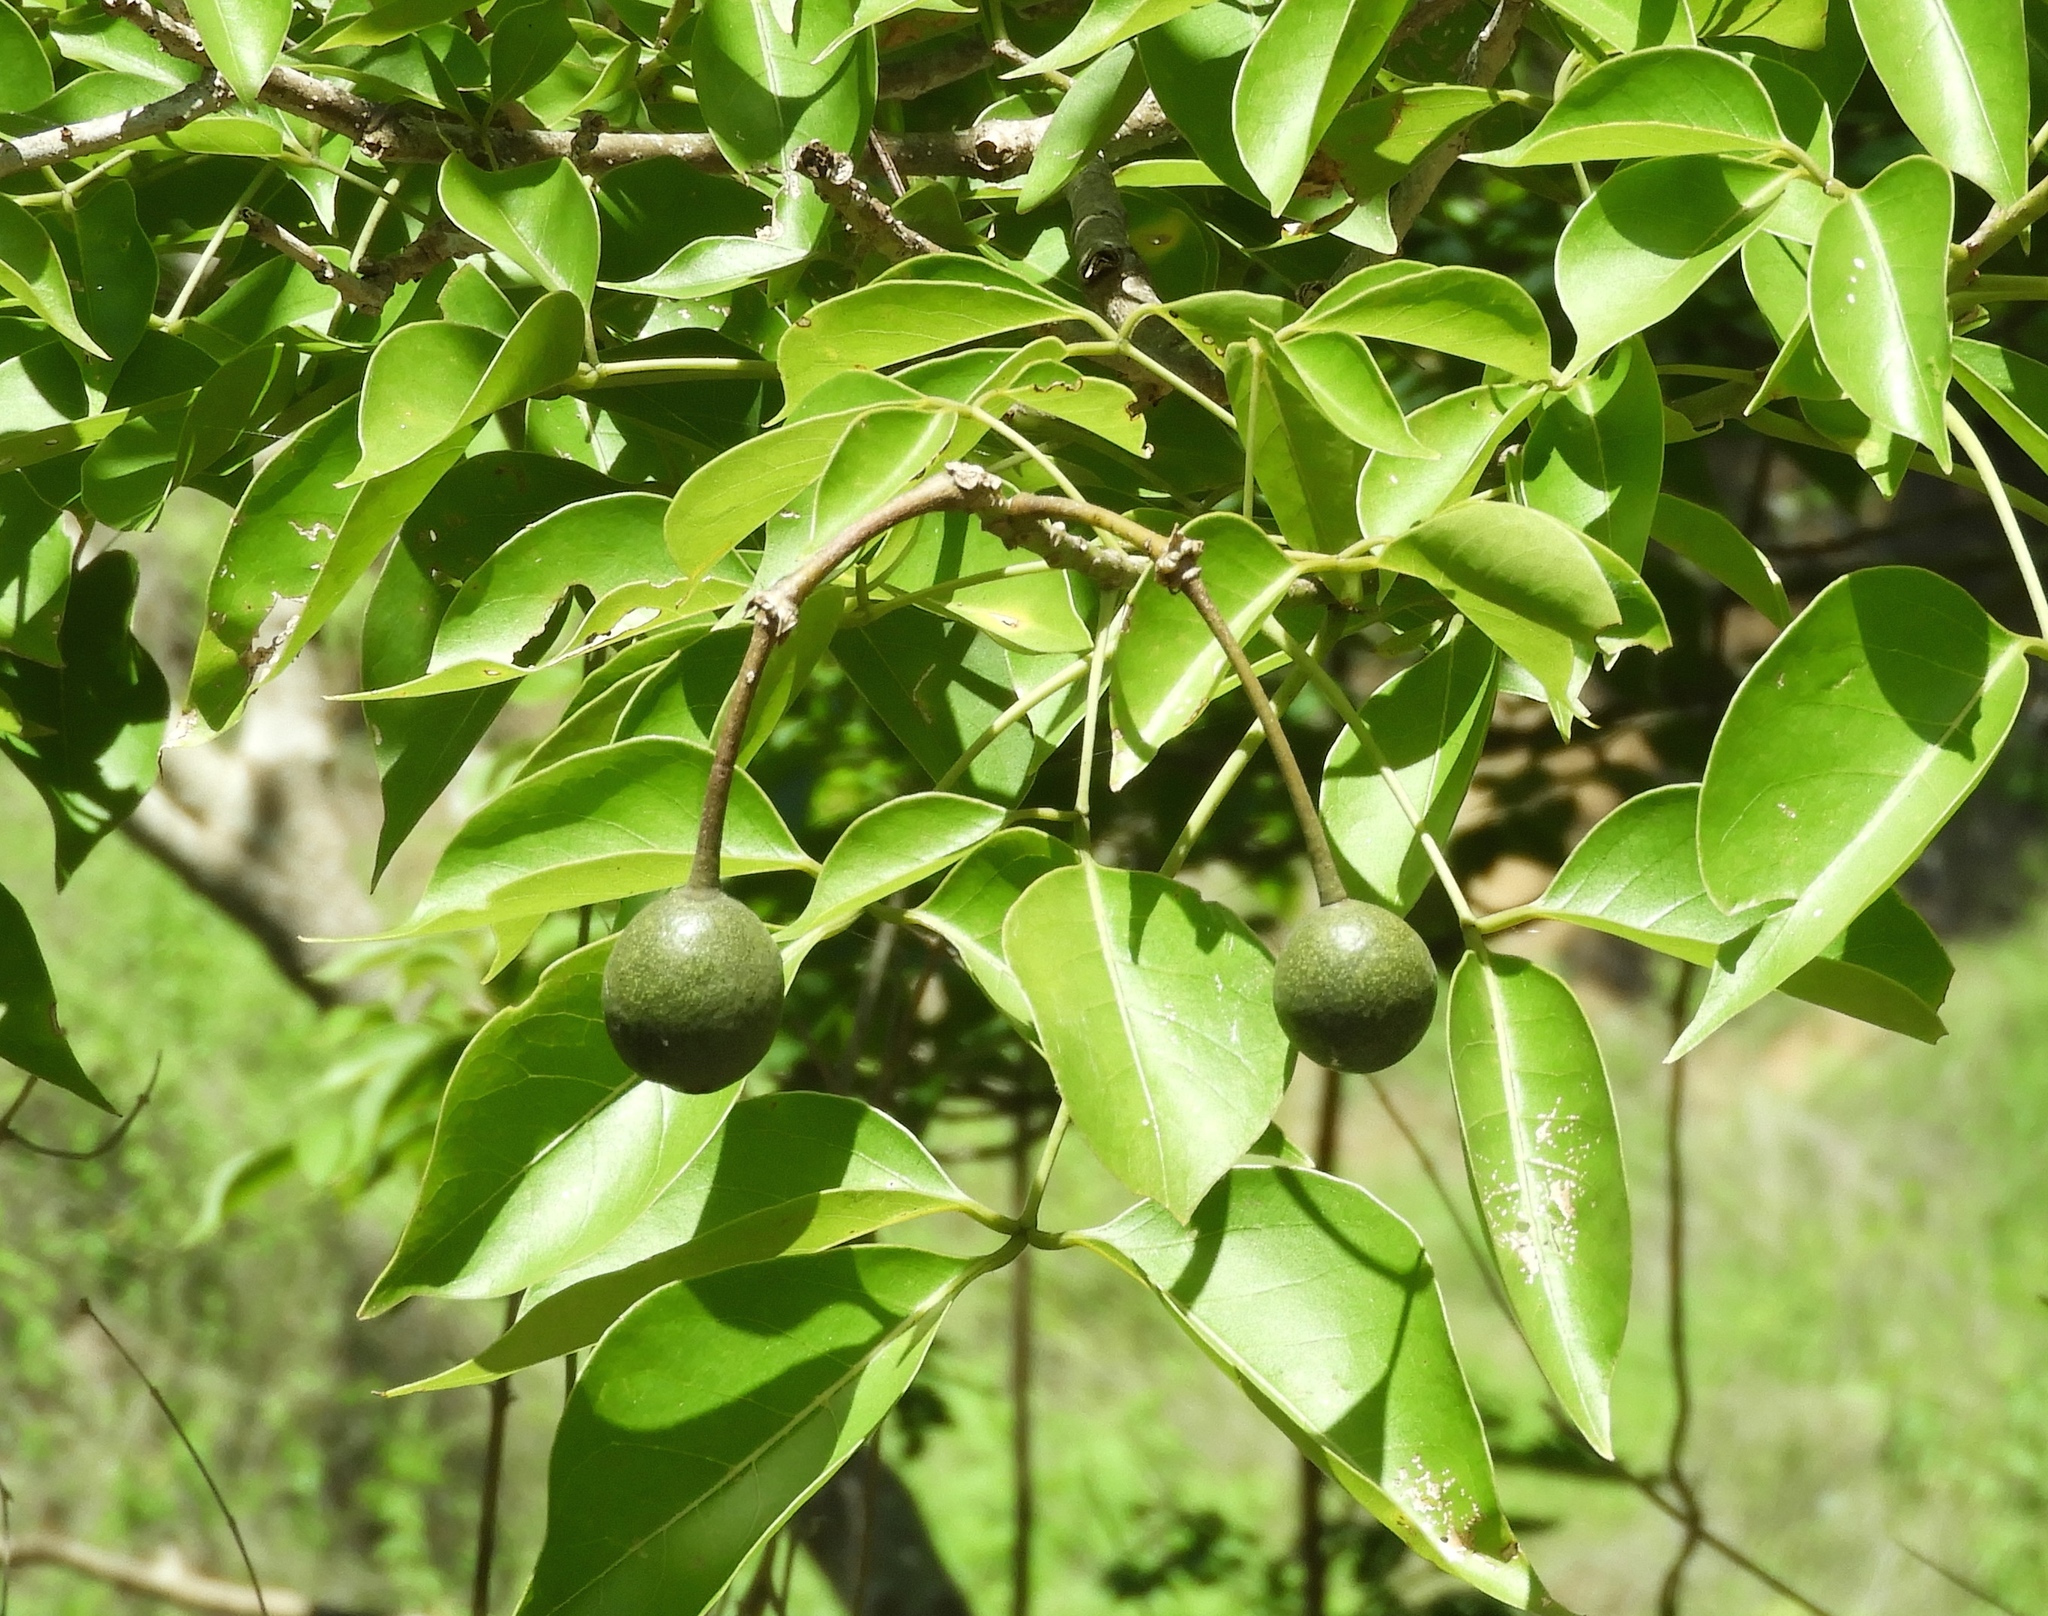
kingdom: Plantae
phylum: Tracheophyta
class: Magnoliopsida
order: Brassicales
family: Capparaceae
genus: Crateva
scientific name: Crateva tapia
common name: Garlic-pear
